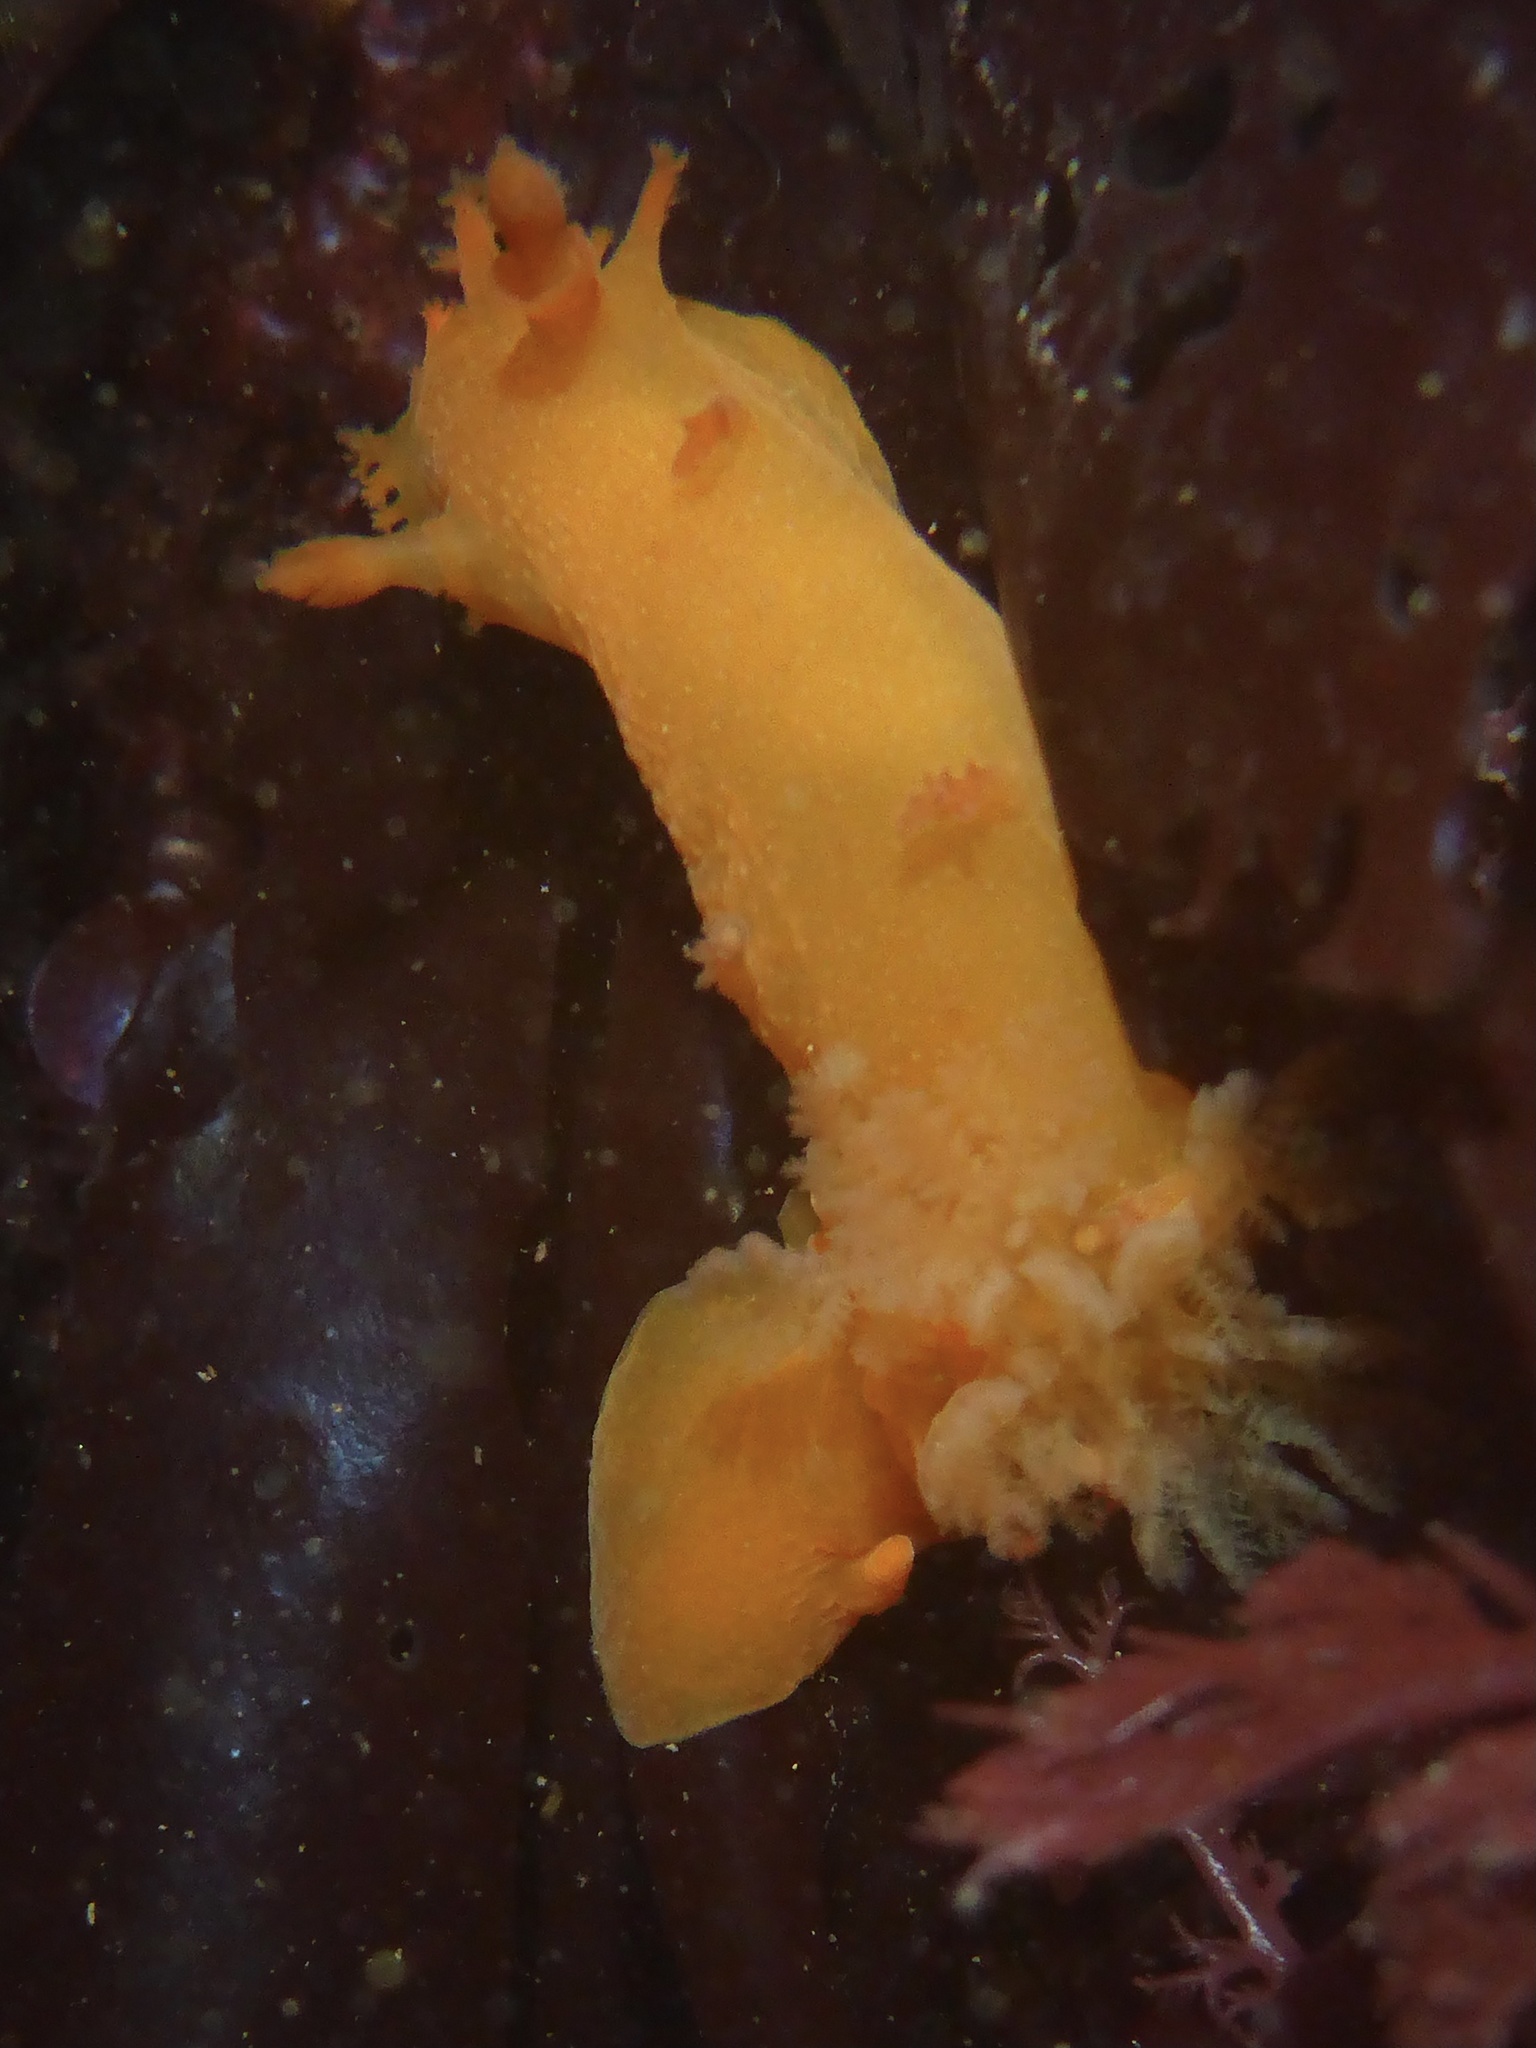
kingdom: Animalia
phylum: Mollusca
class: Gastropoda
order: Nudibranchia
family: Polyceridae
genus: Triopha
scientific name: Triopha maculata
